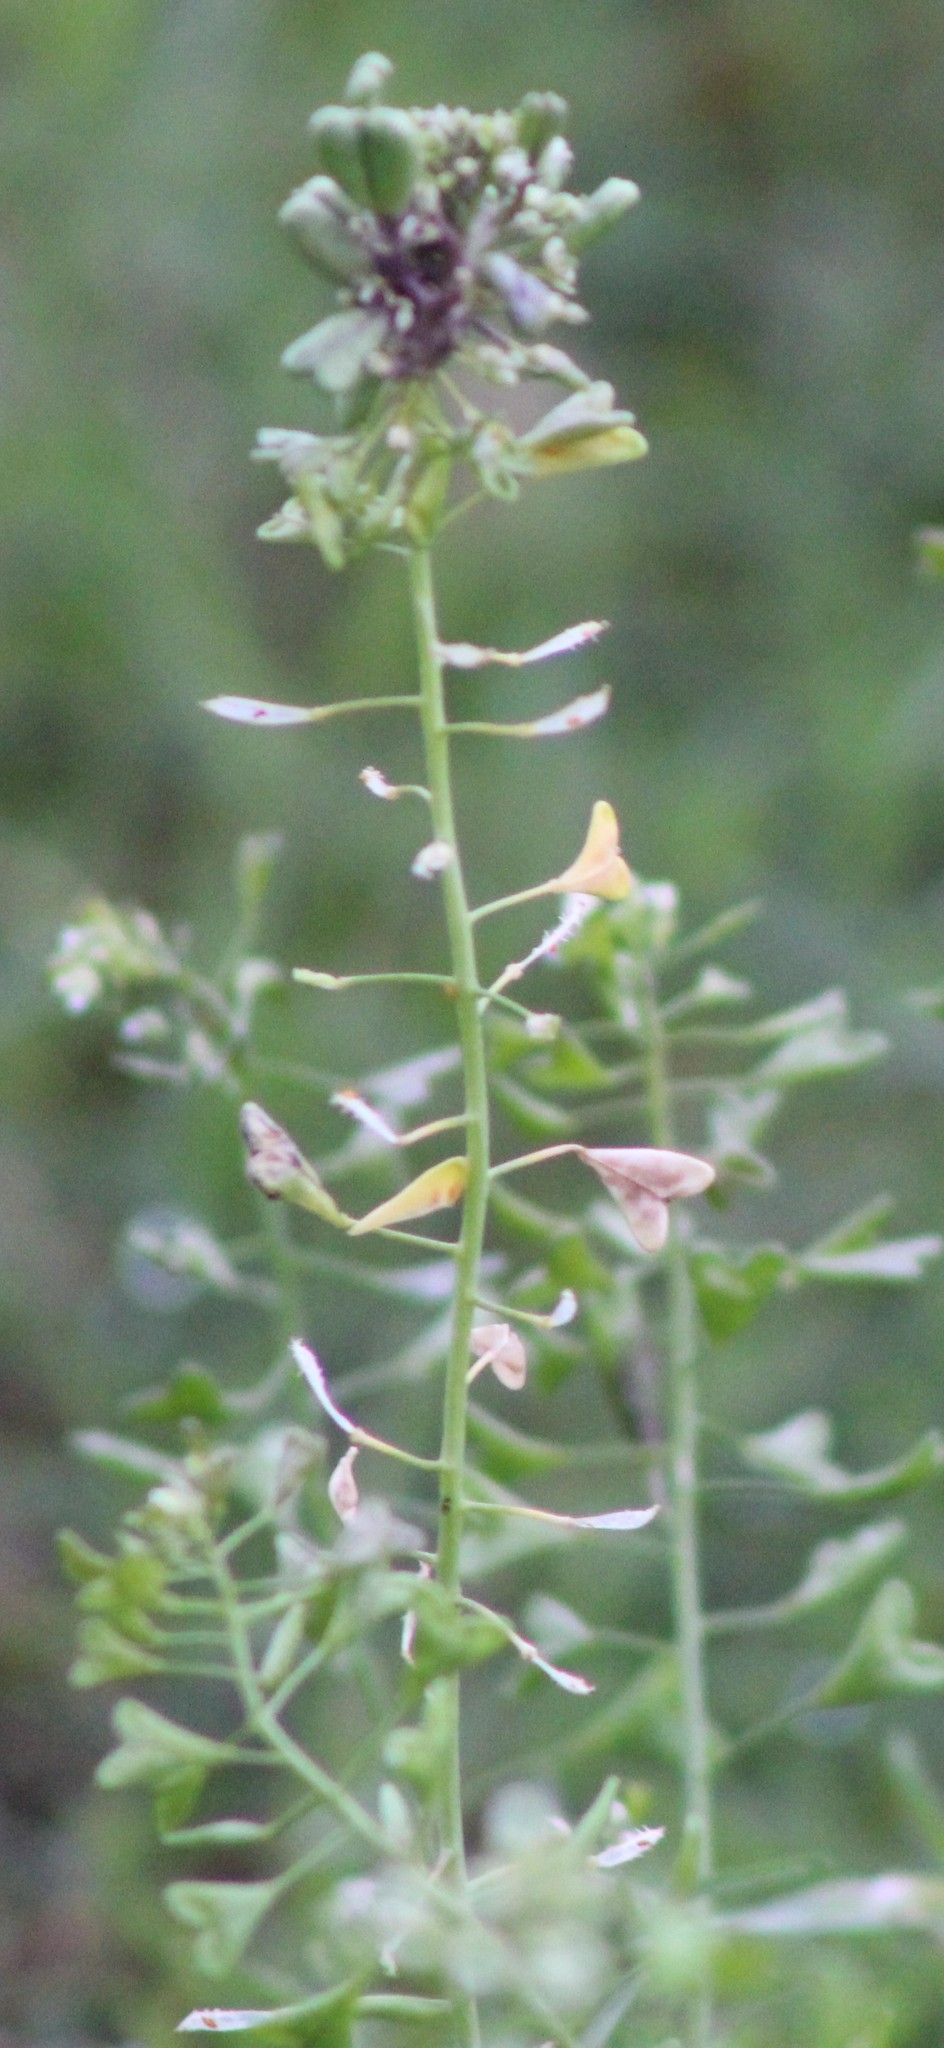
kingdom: Plantae
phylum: Tracheophyta
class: Magnoliopsida
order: Brassicales
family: Brassicaceae
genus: Capsella
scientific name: Capsella bursa-pastoris
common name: Shepherd's purse
